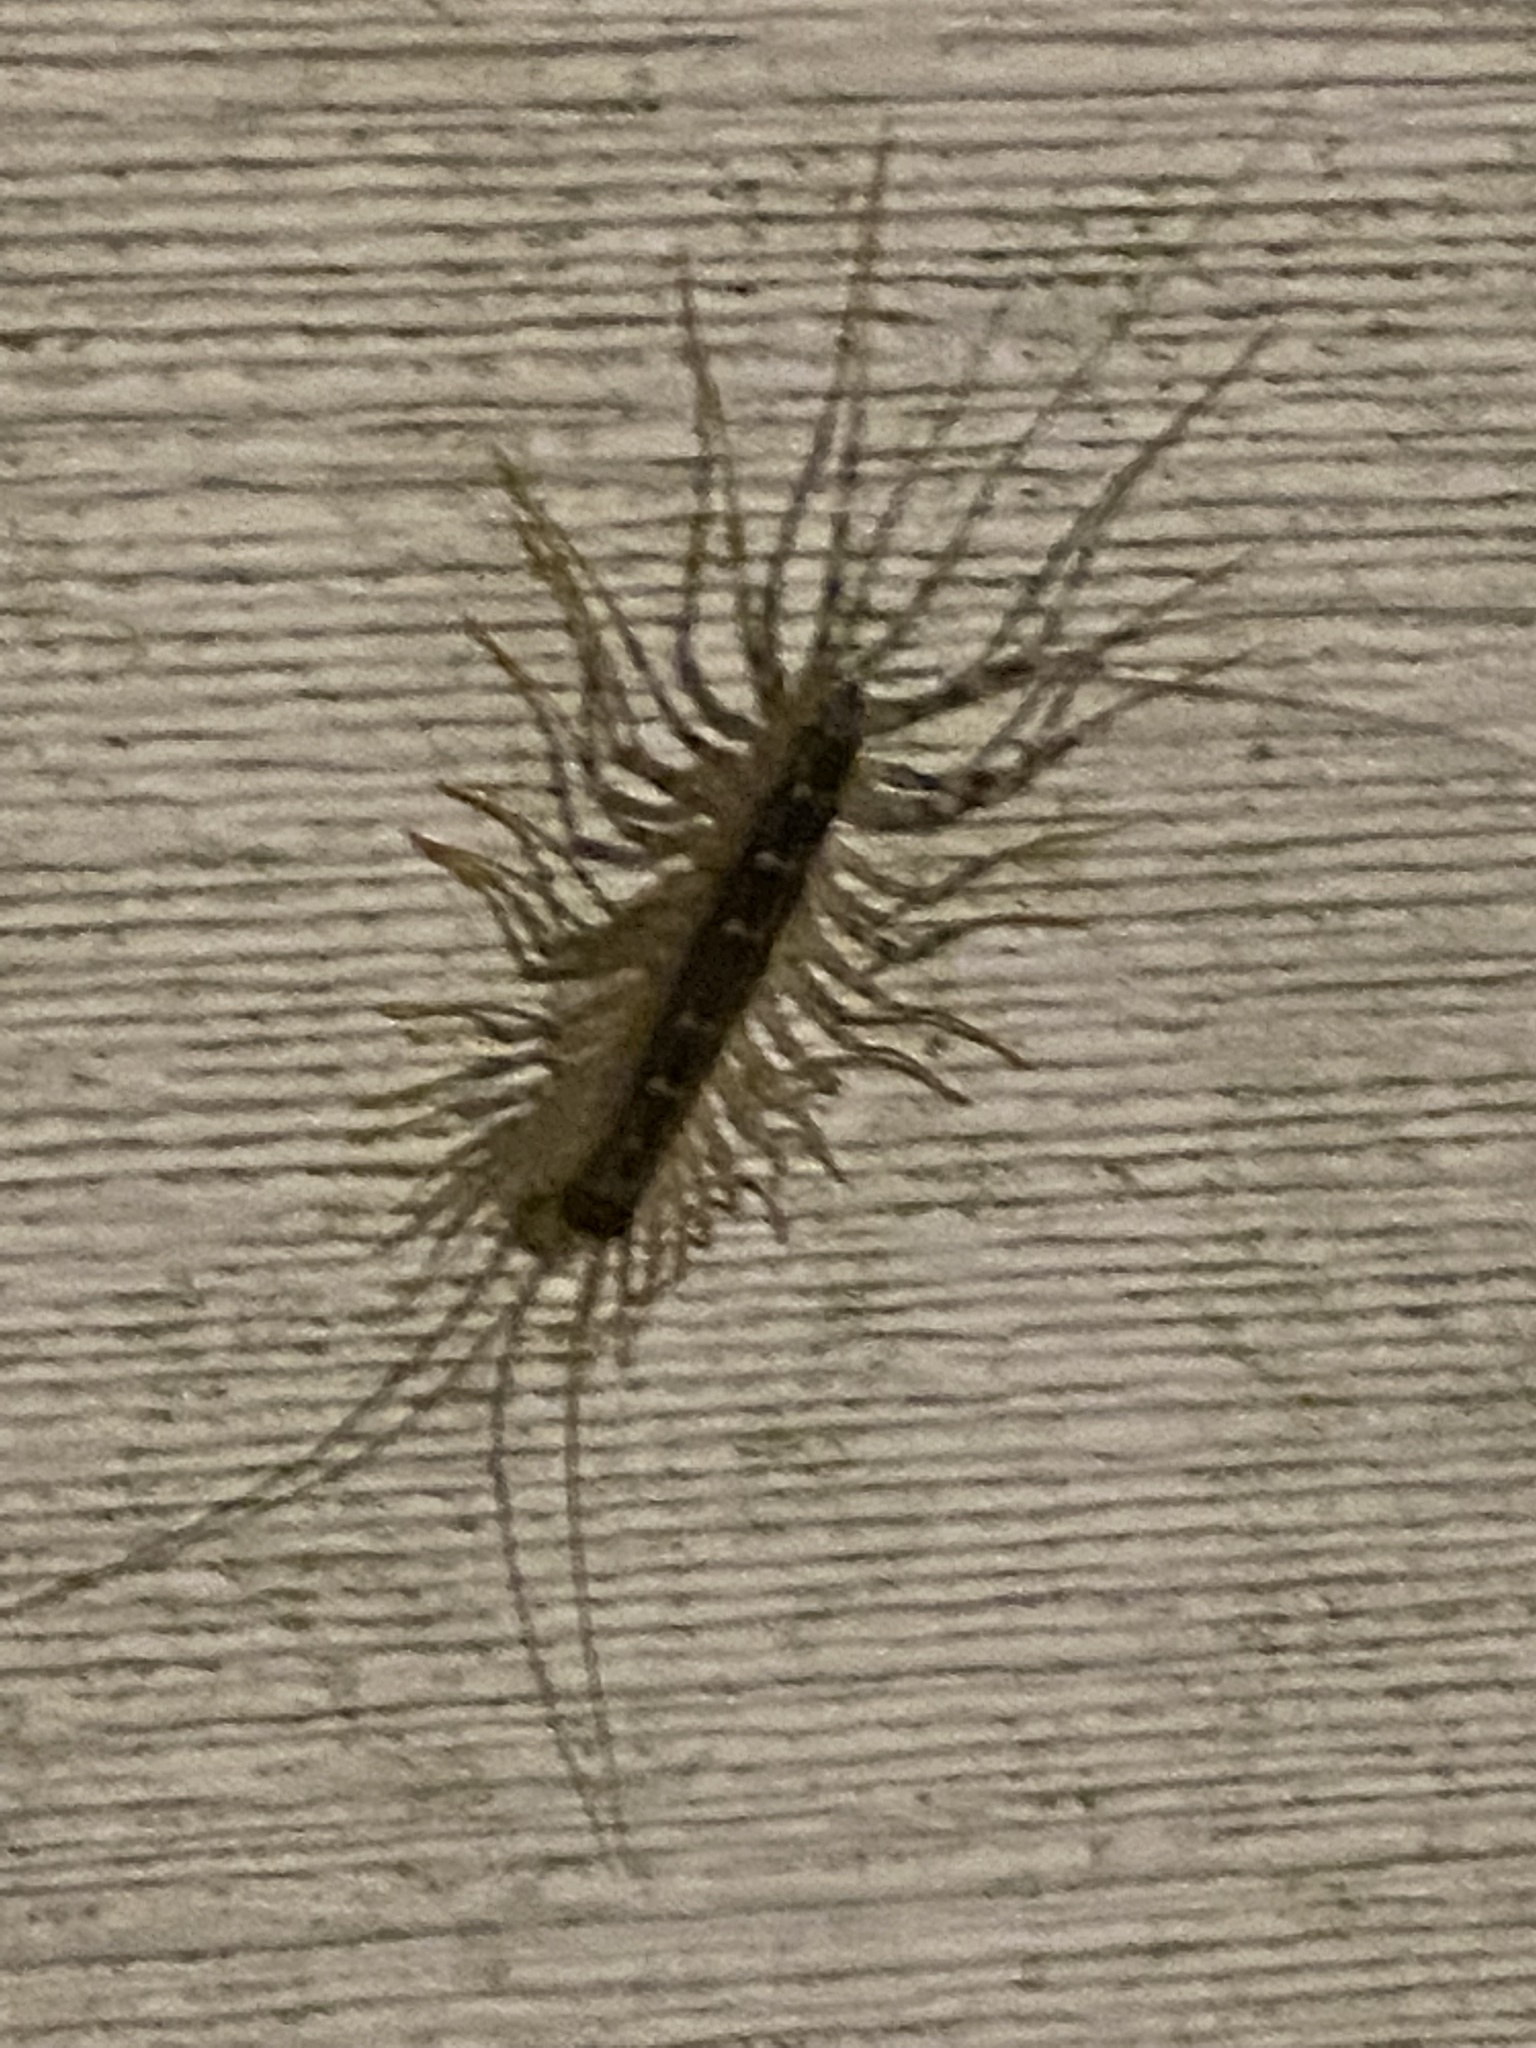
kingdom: Animalia
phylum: Arthropoda
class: Chilopoda
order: Scutigeromorpha
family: Scutigeridae
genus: Scutigera
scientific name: Scutigera coleoptrata
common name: House centipede
